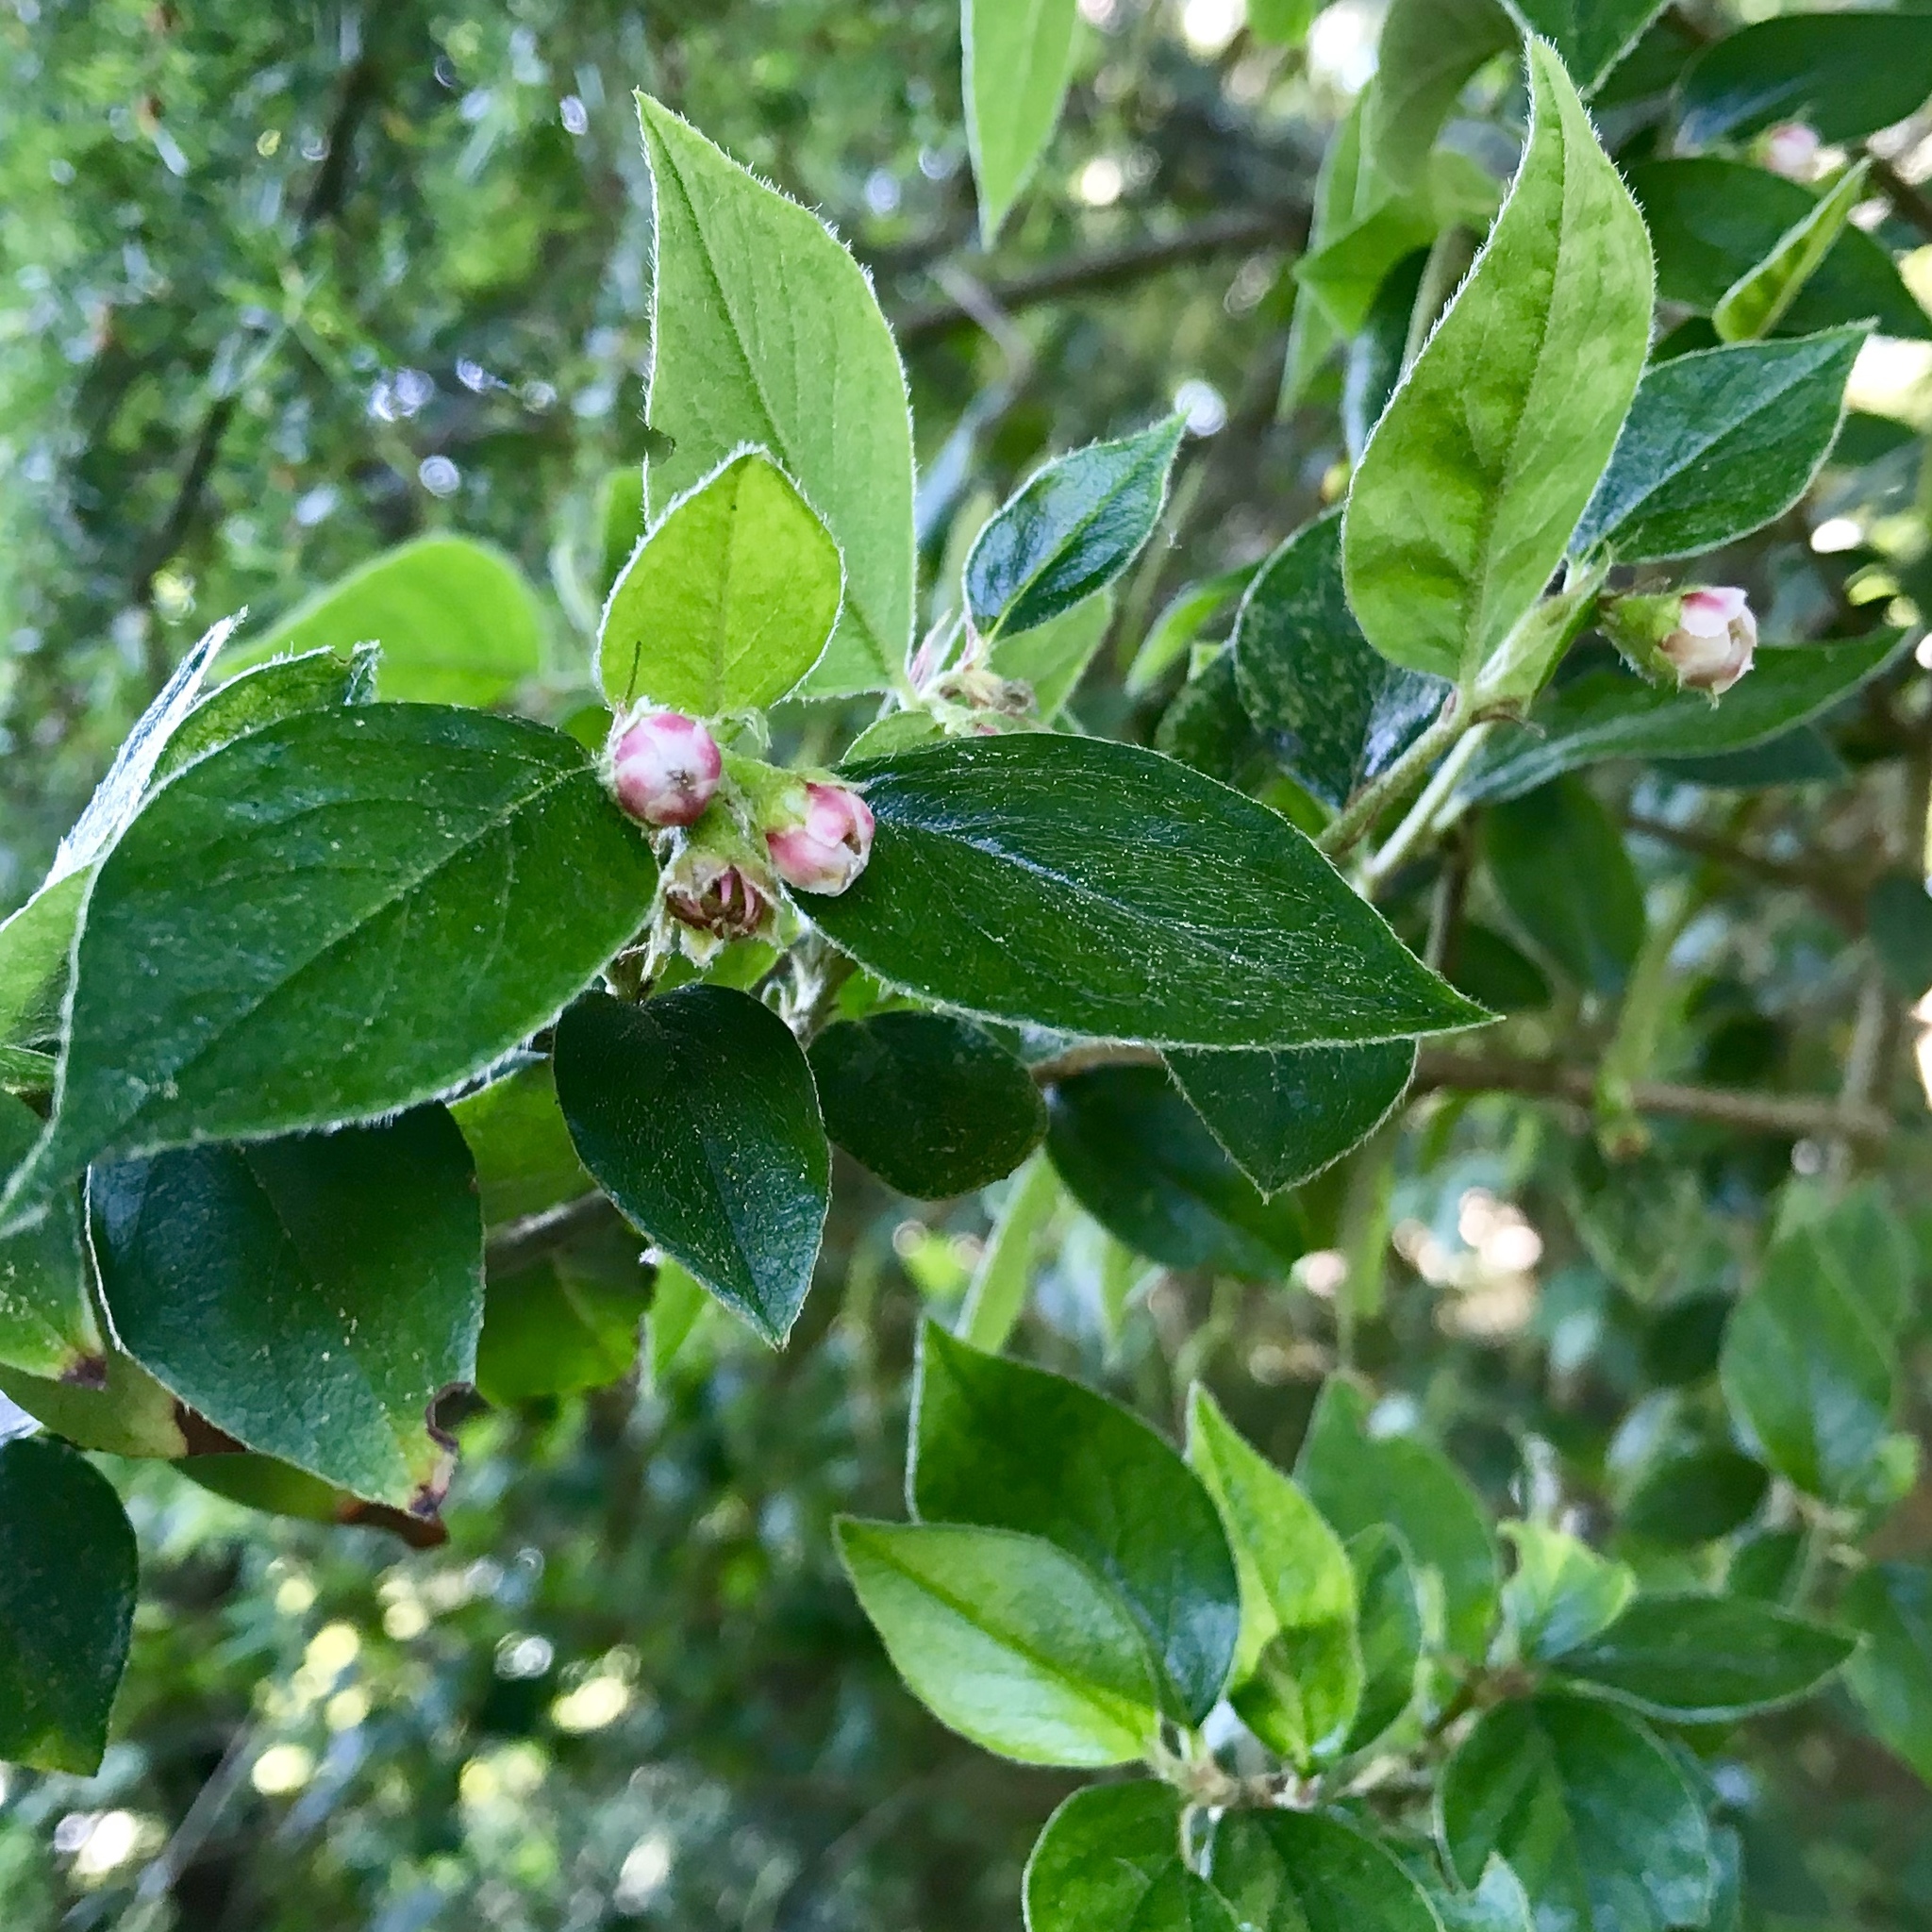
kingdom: Plantae
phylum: Tracheophyta
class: Magnoliopsida
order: Rosales
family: Rosaceae
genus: Cotoneaster
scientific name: Cotoneaster franchetii
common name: Franchet's cotoneaster
